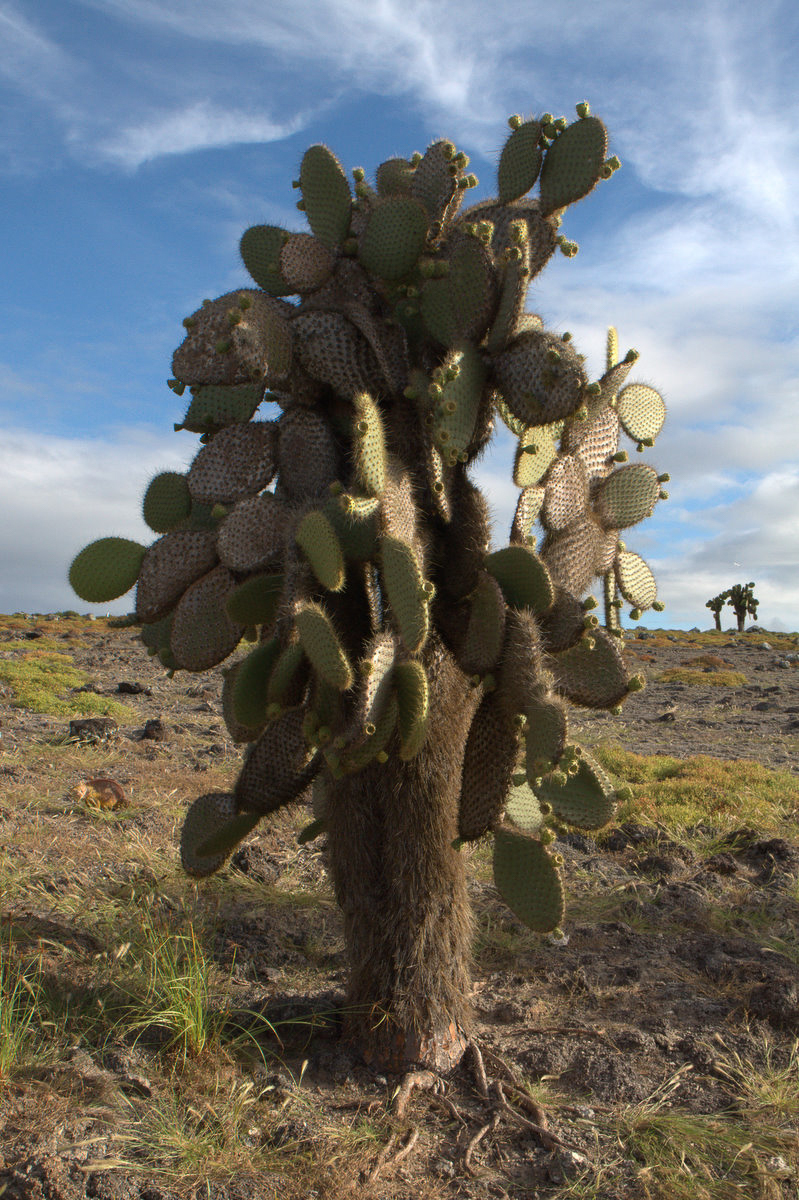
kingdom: Plantae
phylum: Tracheophyta
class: Magnoliopsida
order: Caryophyllales
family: Cactaceae
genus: Opuntia
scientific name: Opuntia galapageia
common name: Galápagos prickly pear
